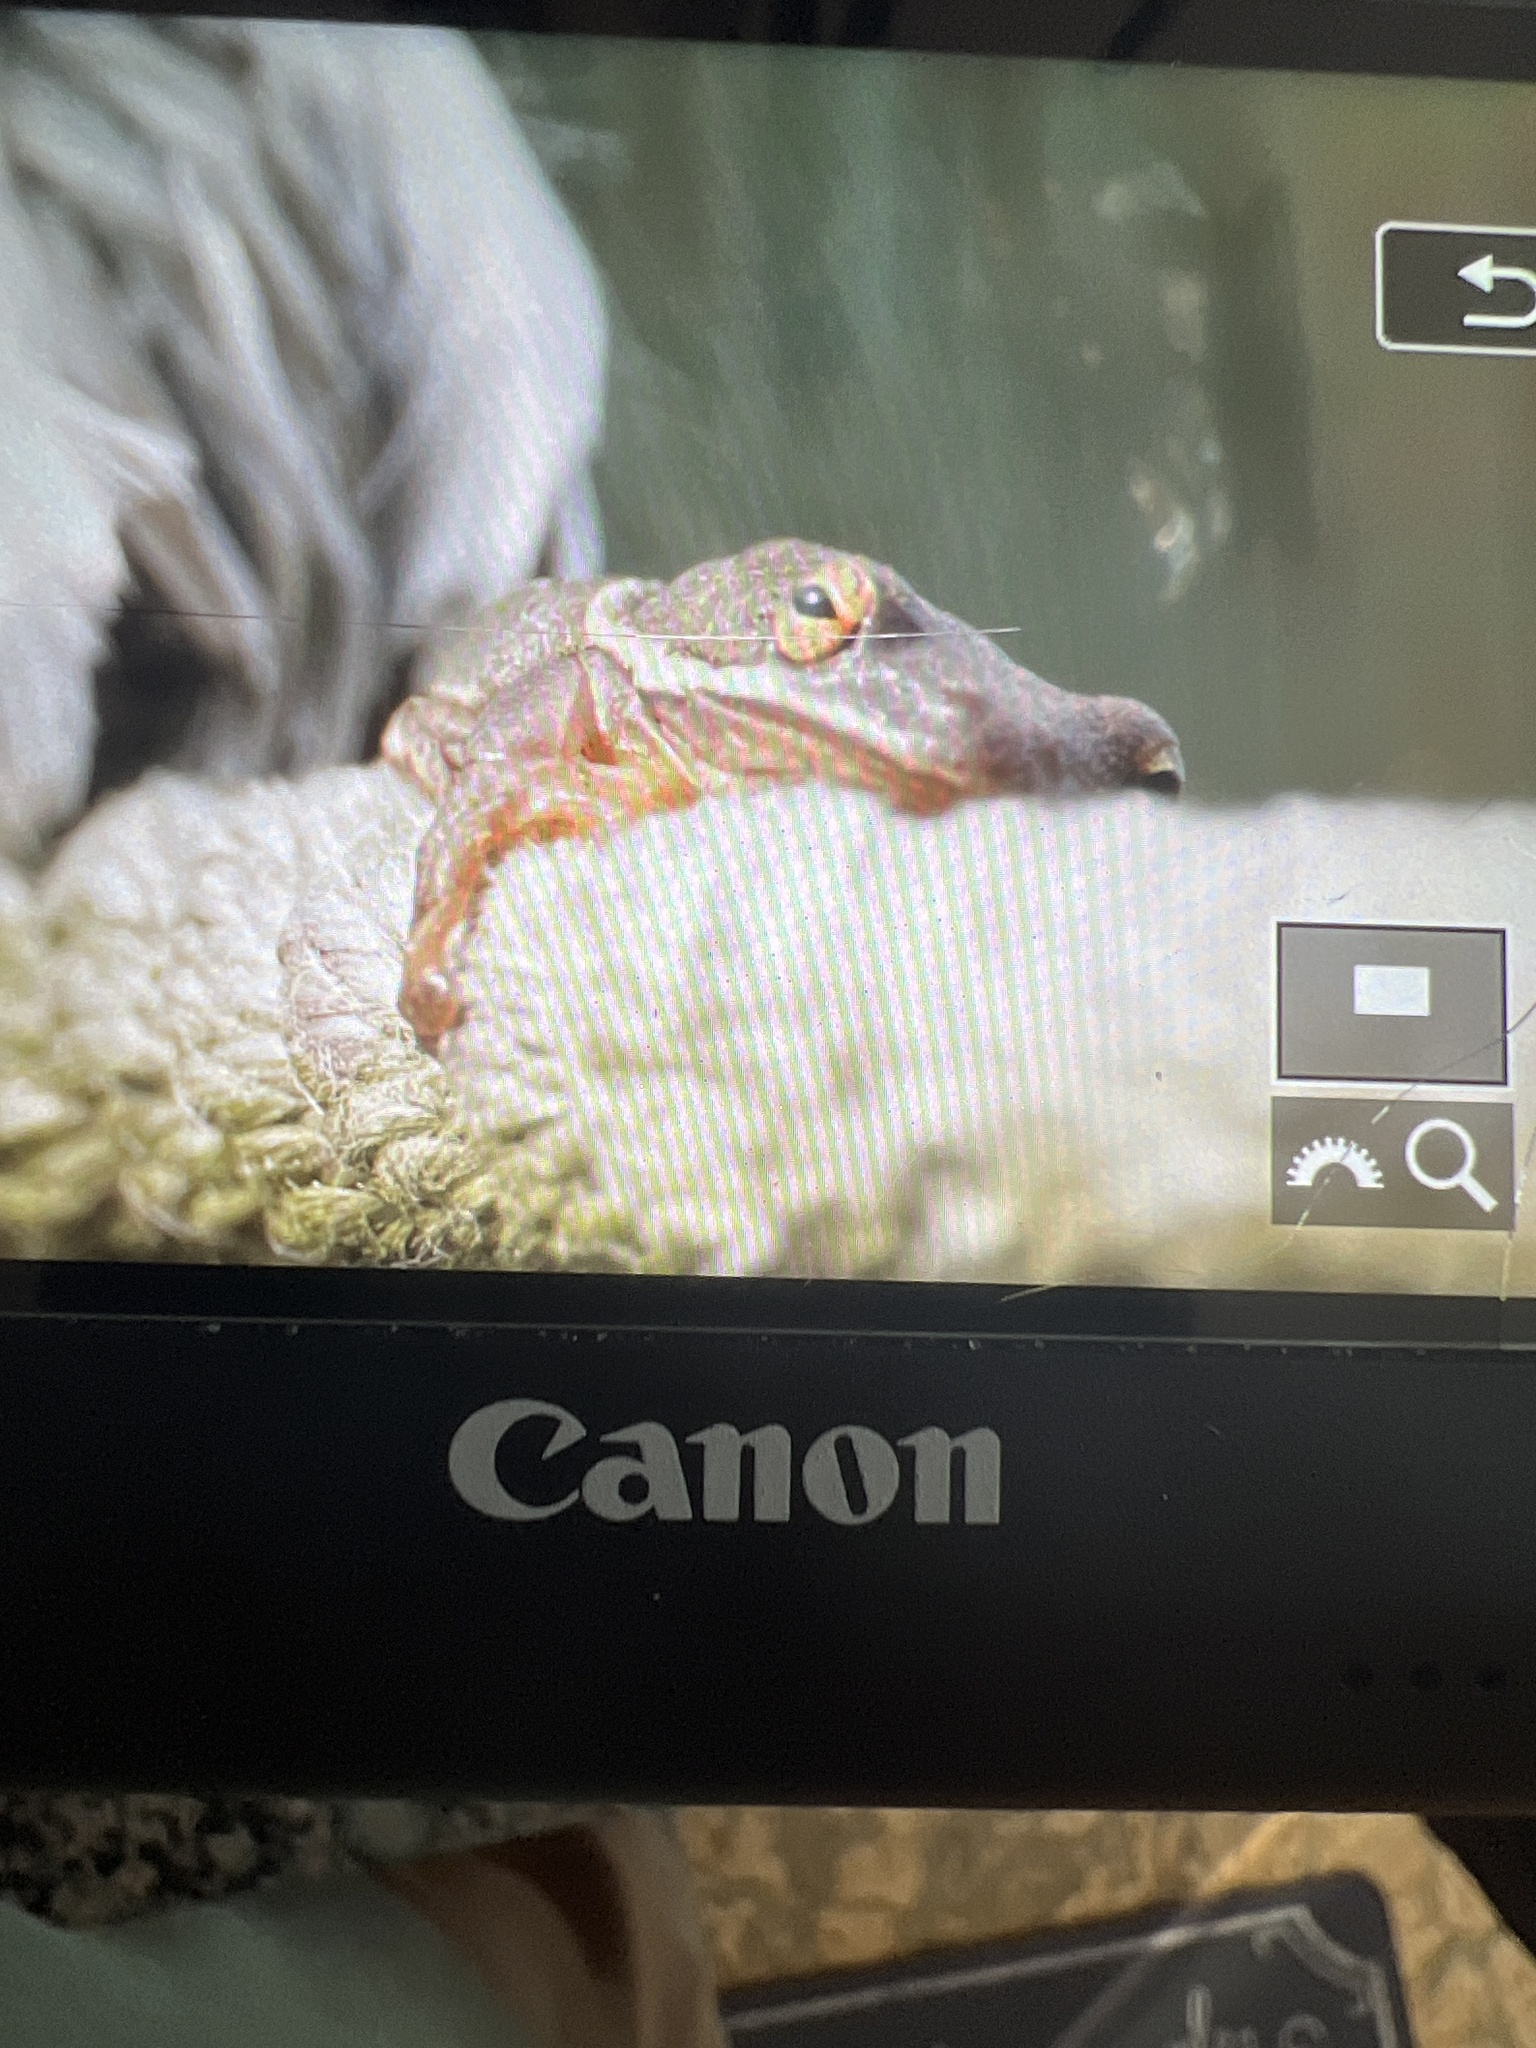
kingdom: Animalia
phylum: Chordata
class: Amphibia
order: Anura
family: Hylidae
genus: Dryophytes
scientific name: Dryophytes cinereus
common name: Green treefrog
